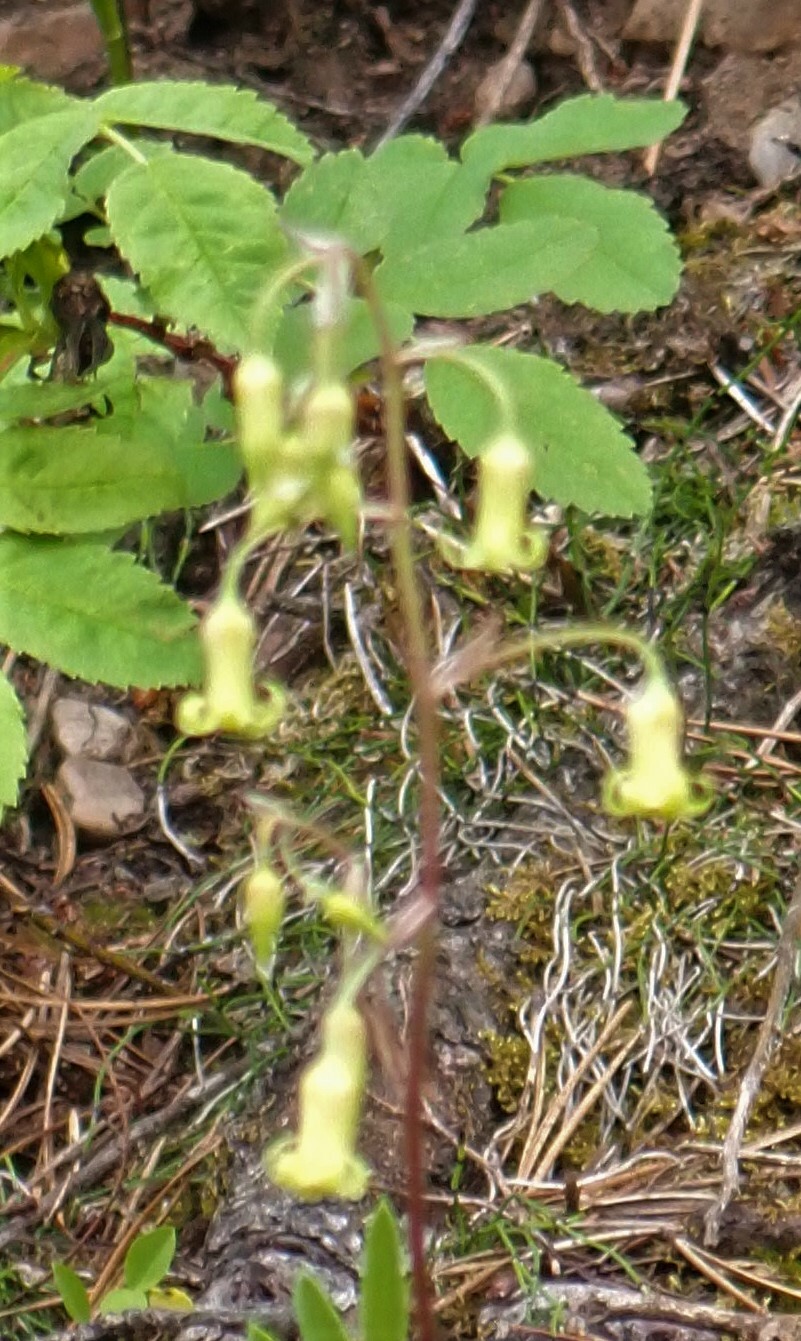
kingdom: Plantae
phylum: Tracheophyta
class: Liliopsida
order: Liliales
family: Melanthiaceae
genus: Anticlea
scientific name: Anticlea occidentalis
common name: Bronze-bells
